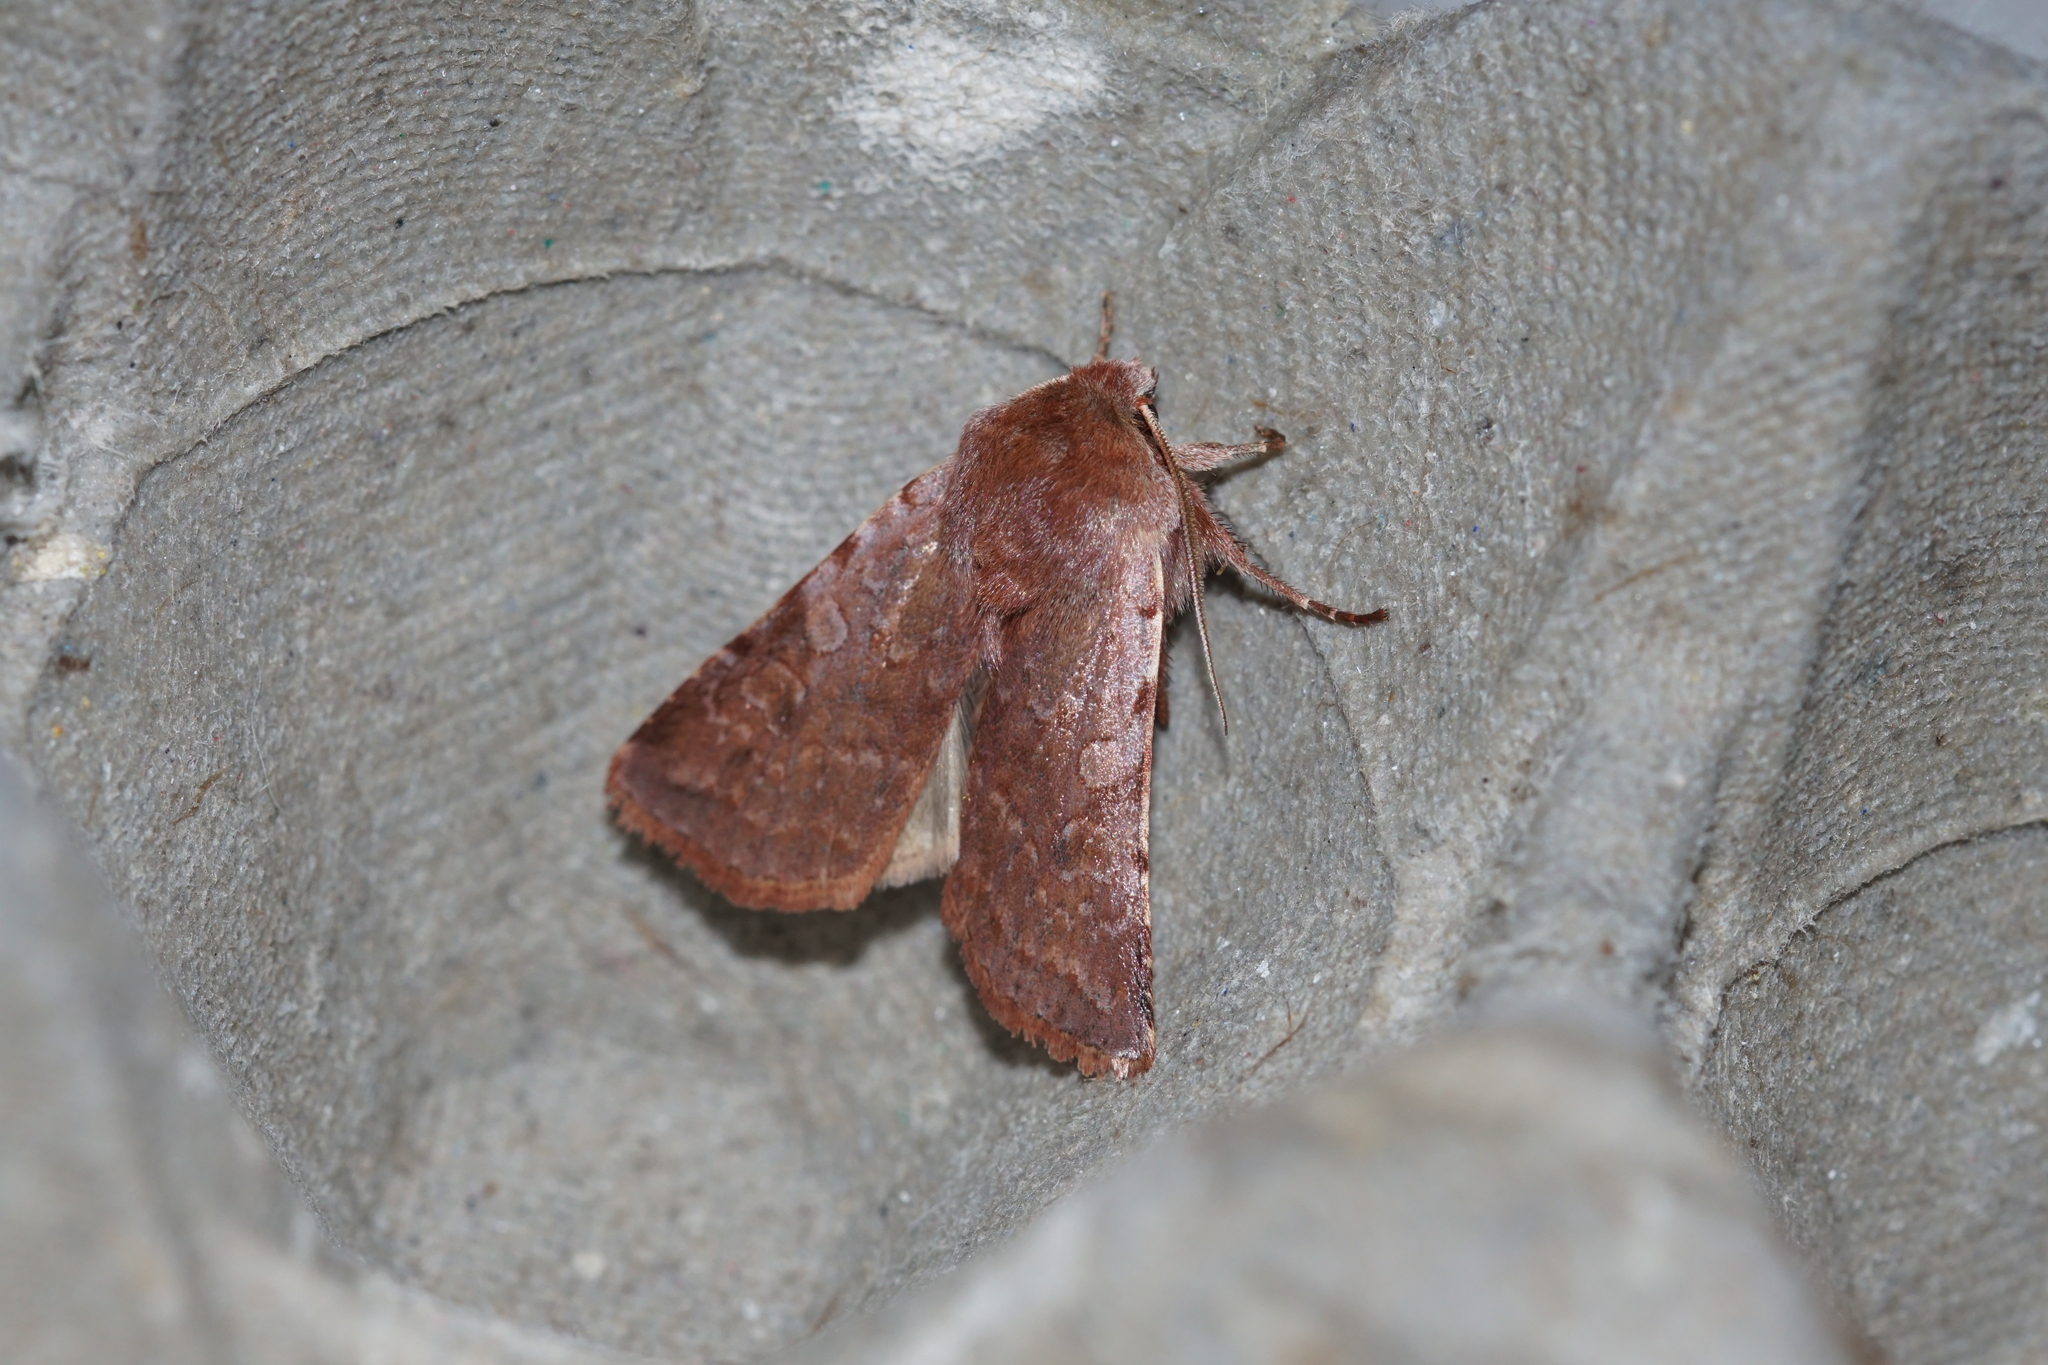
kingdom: Animalia
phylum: Arthropoda
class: Insecta
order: Lepidoptera
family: Noctuidae
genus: Cerastis
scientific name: Cerastis rubricosa
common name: Red chestnut
